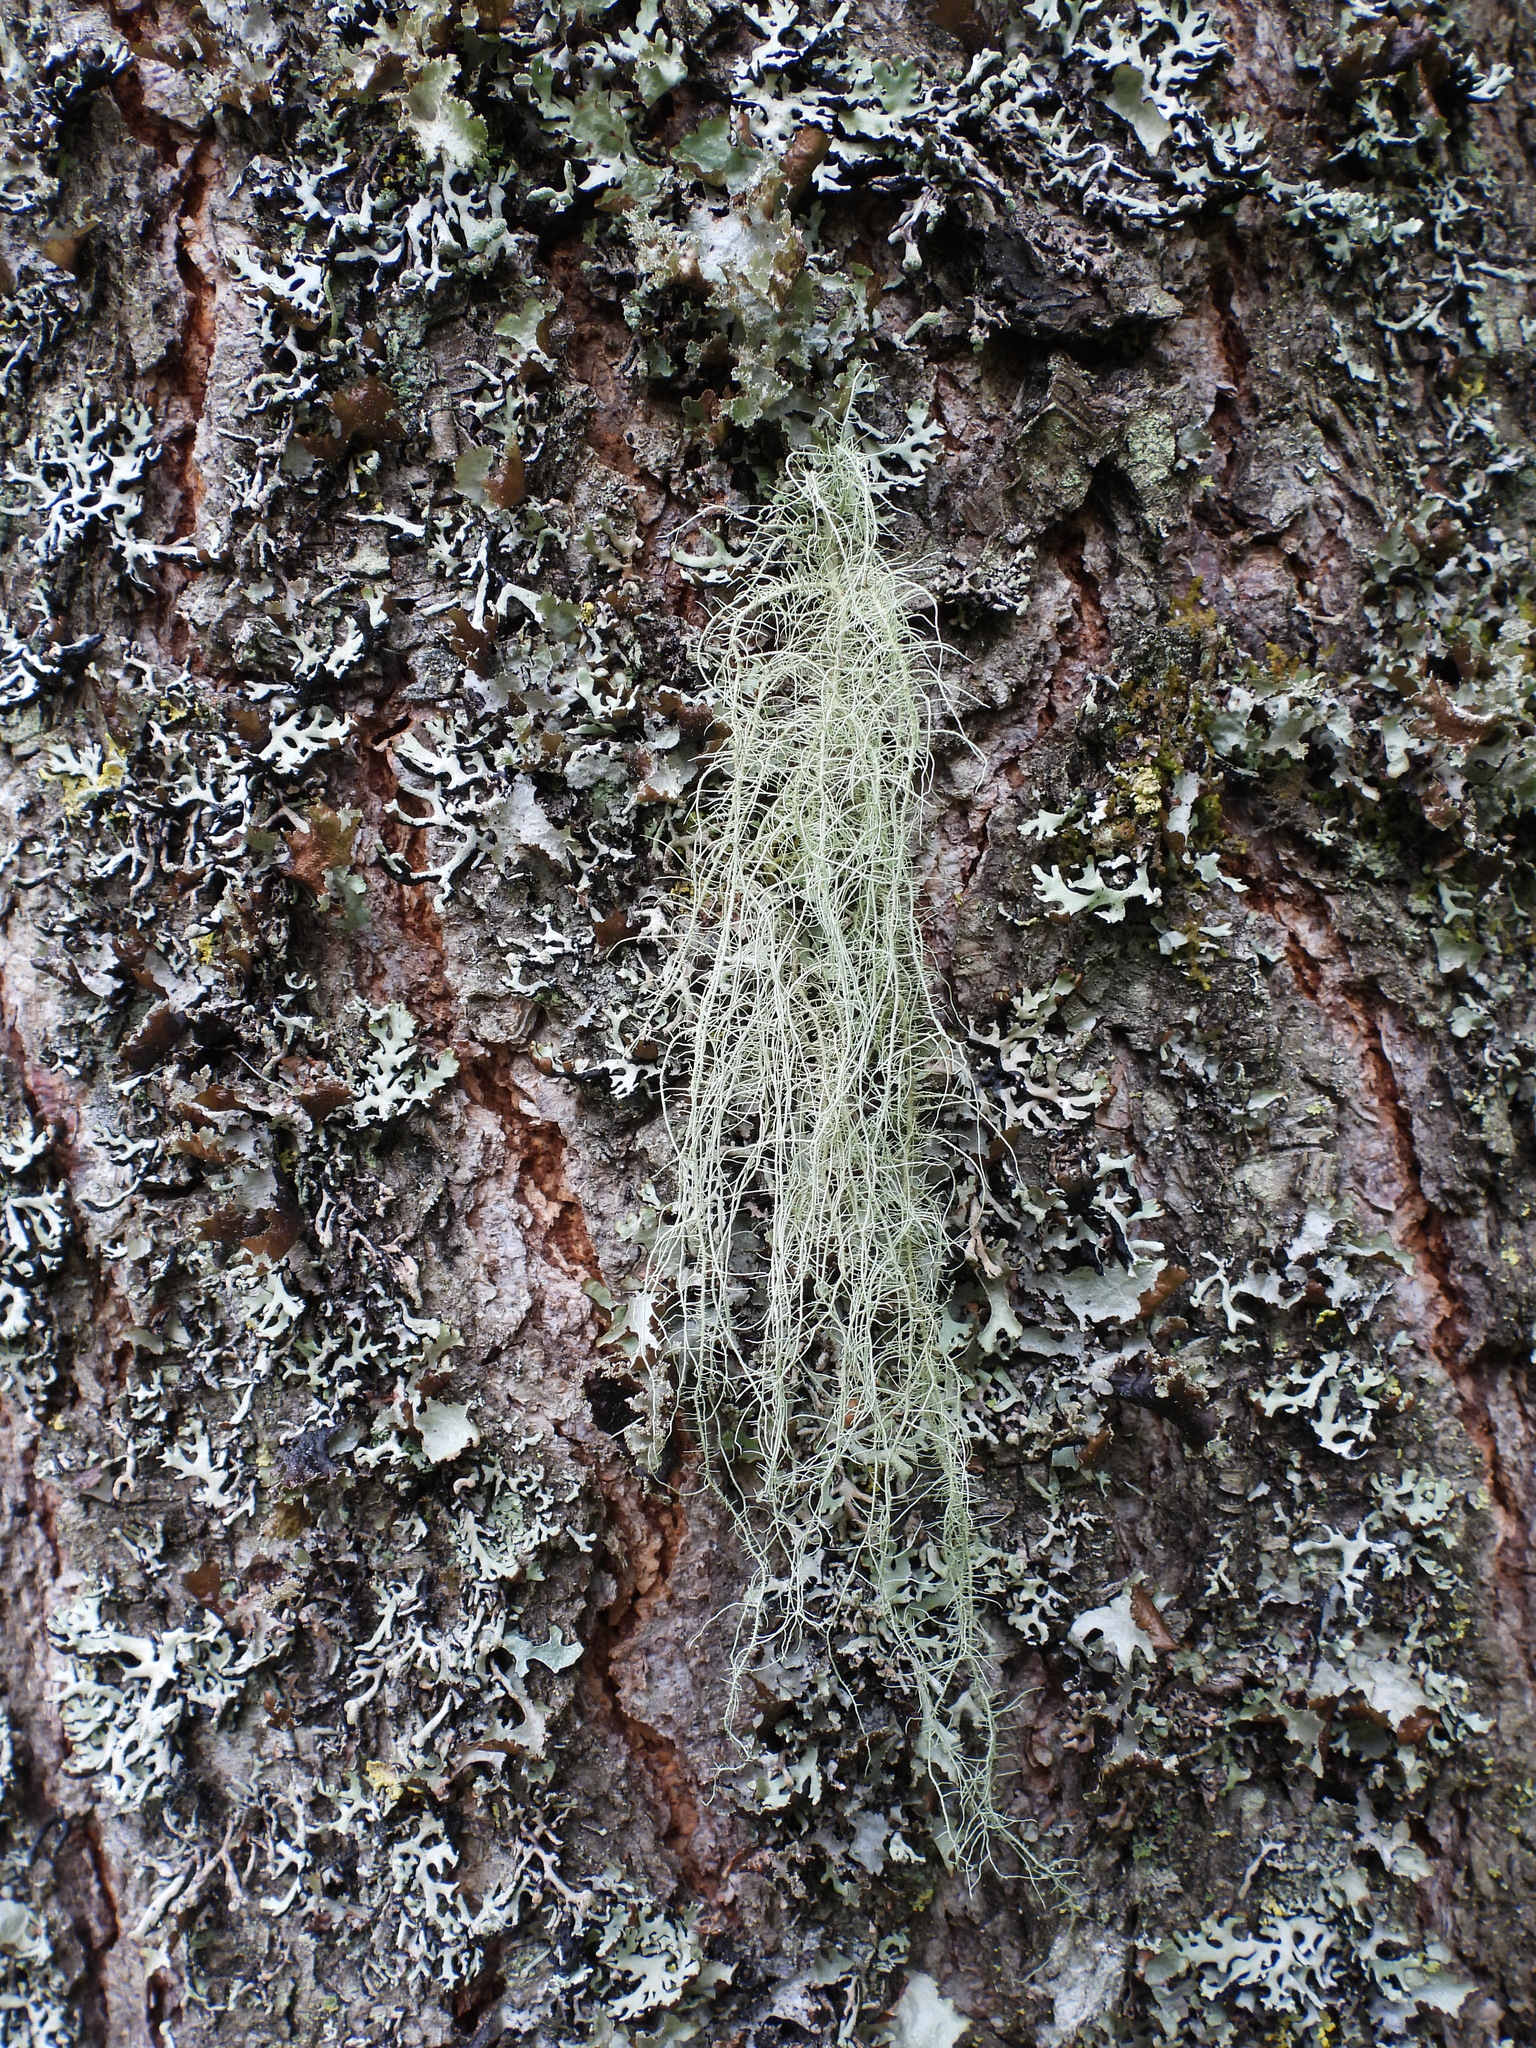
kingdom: Fungi
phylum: Ascomycota
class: Lecanoromycetes
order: Lecanorales
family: Parmeliaceae
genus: Usnea
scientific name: Usnea dasopoga
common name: Fishbone beard lichen
